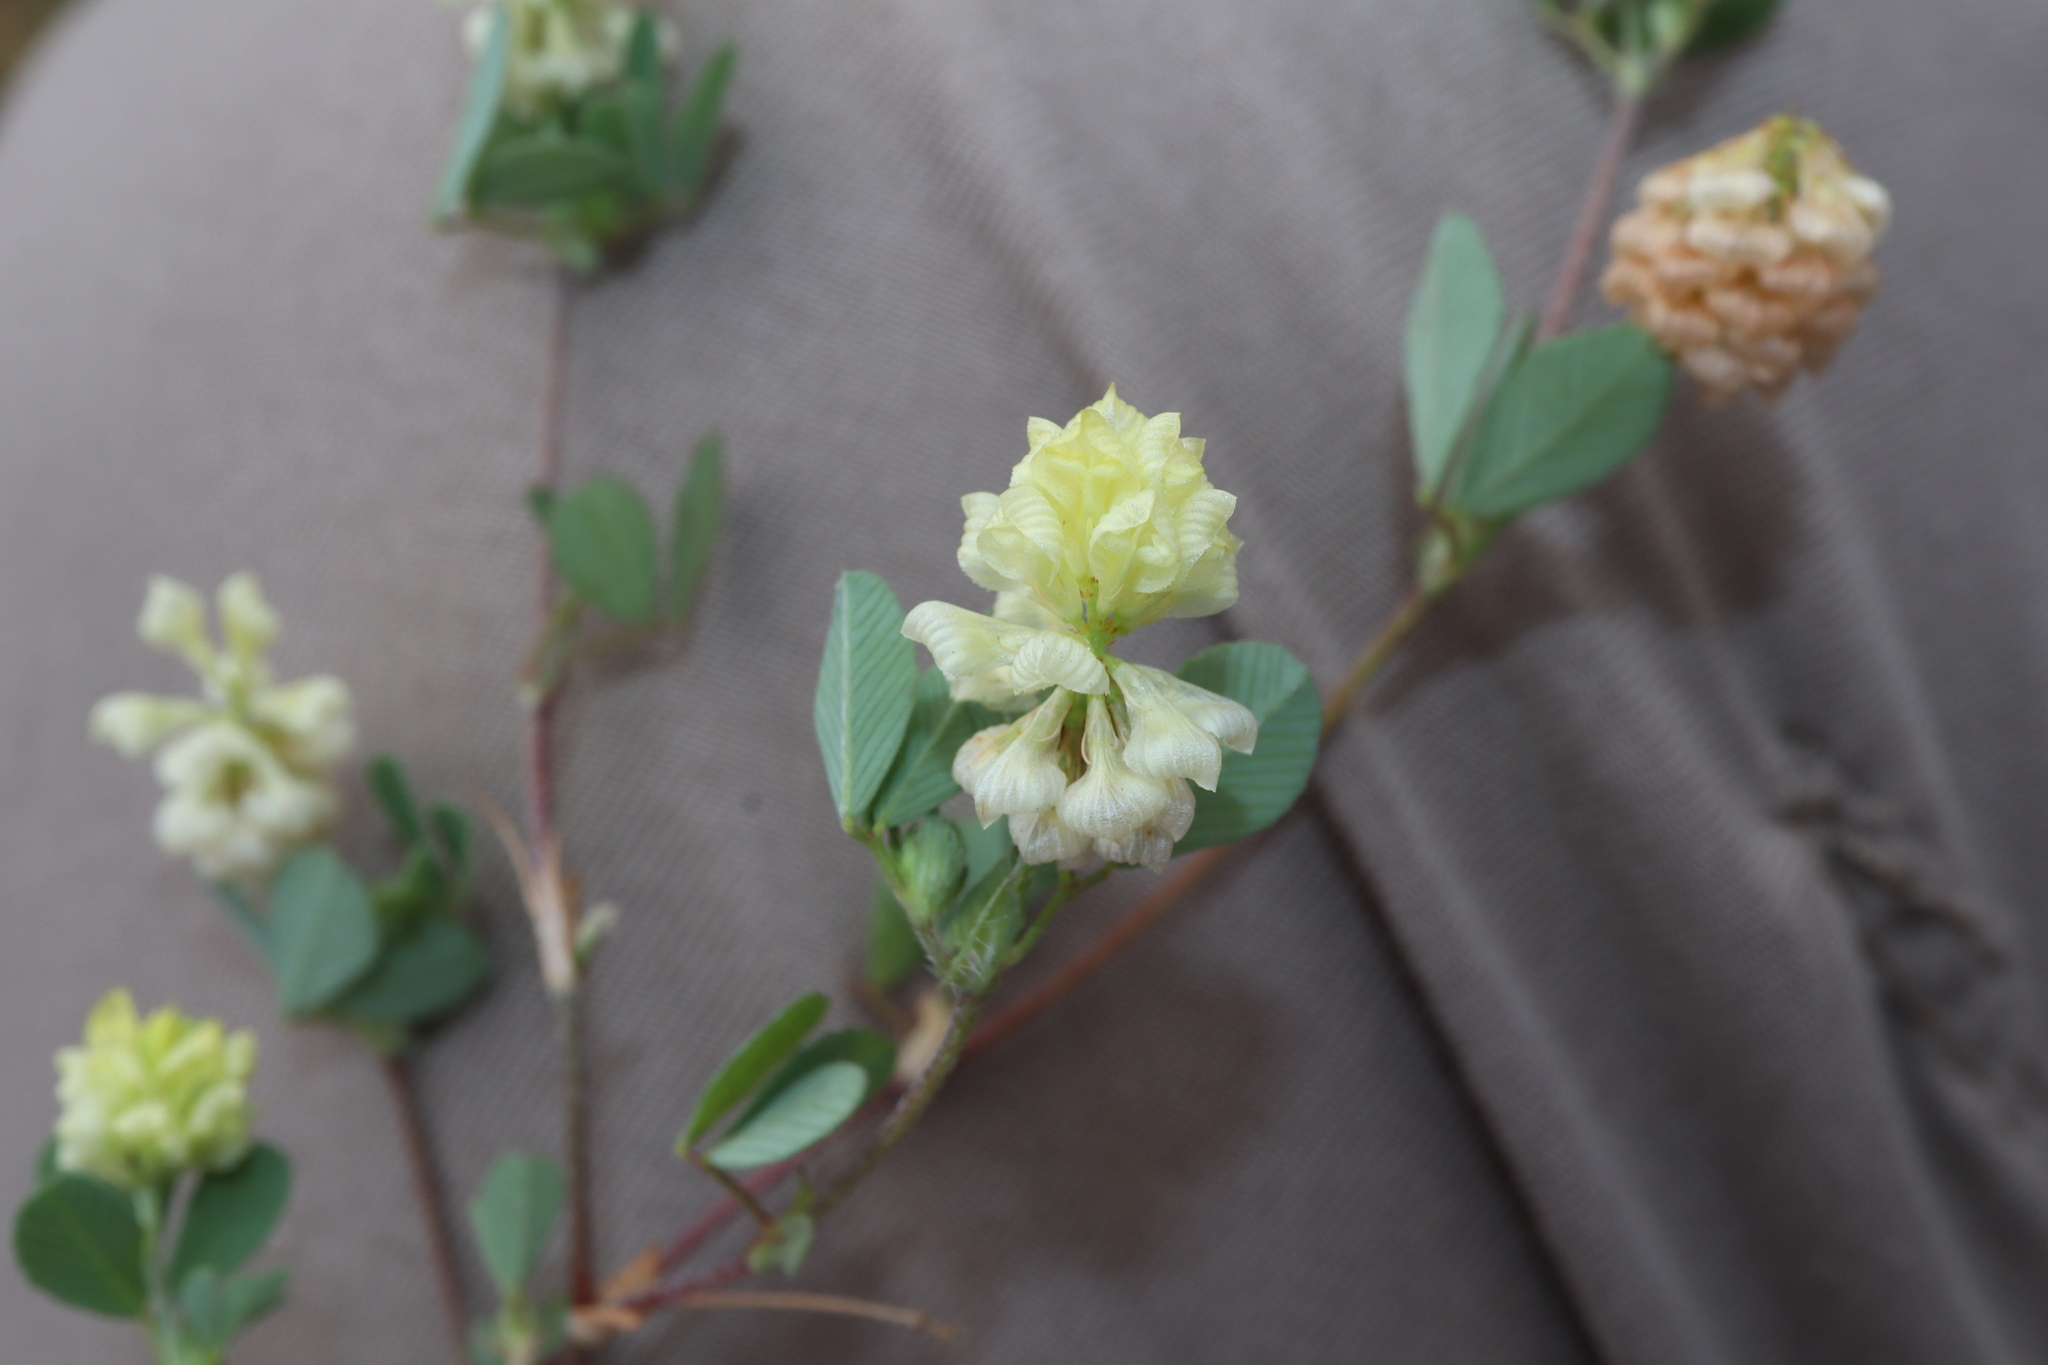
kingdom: Plantae
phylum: Tracheophyta
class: Magnoliopsida
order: Fabales
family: Fabaceae
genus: Trifolium
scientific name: Trifolium campestre
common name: Field clover
